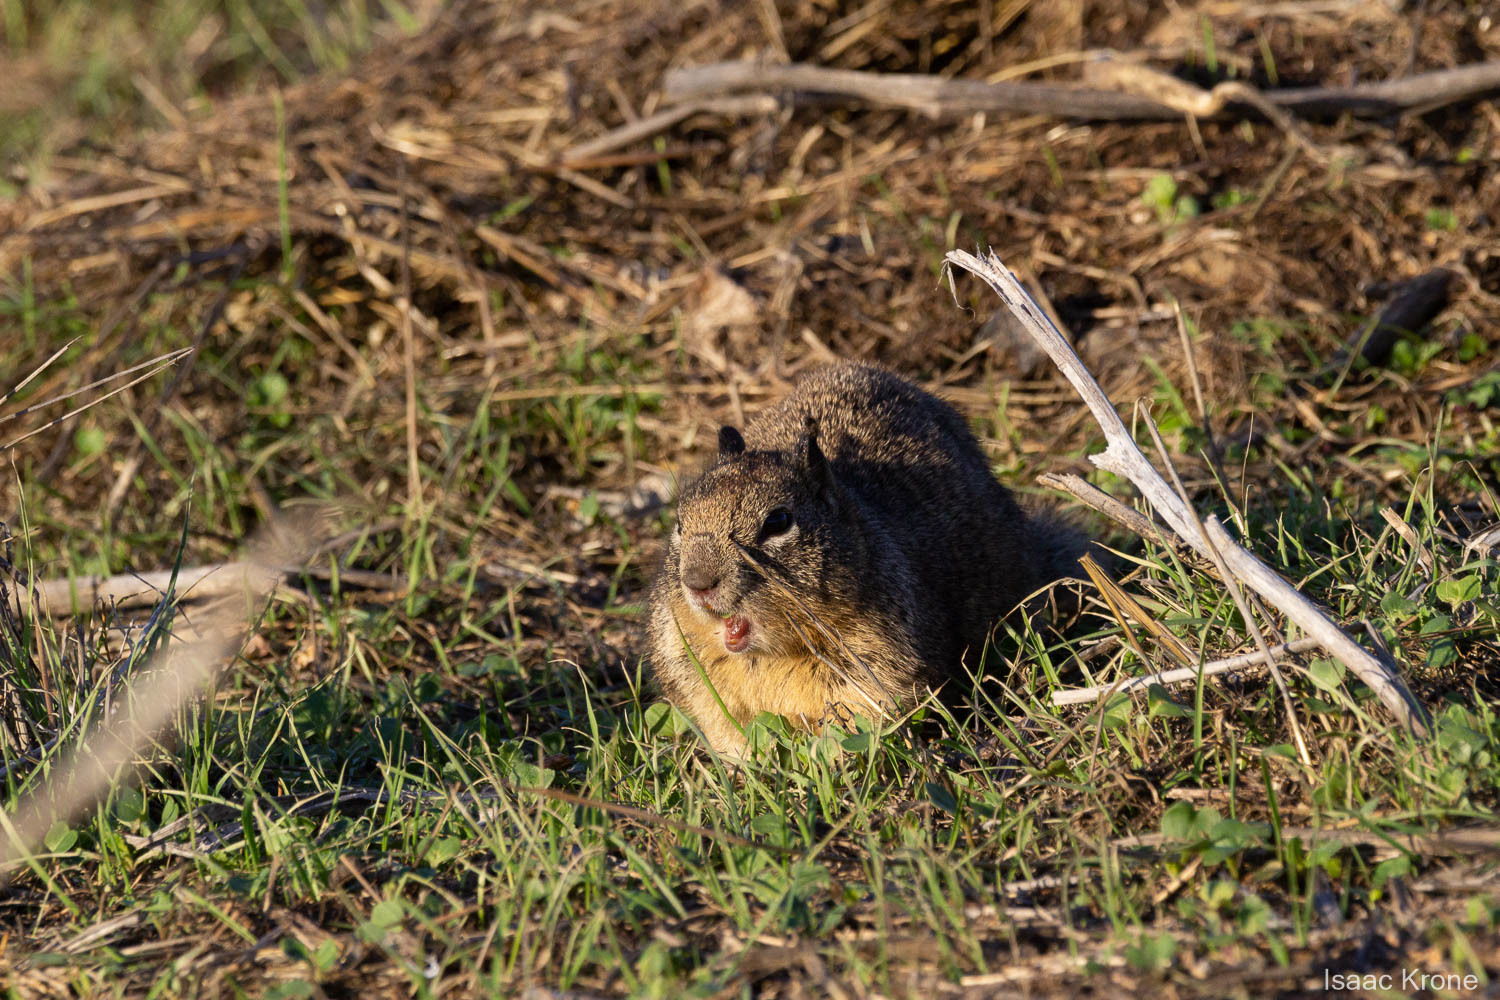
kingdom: Animalia
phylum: Chordata
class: Mammalia
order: Rodentia
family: Sciuridae
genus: Otospermophilus
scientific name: Otospermophilus beecheyi
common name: California ground squirrel
